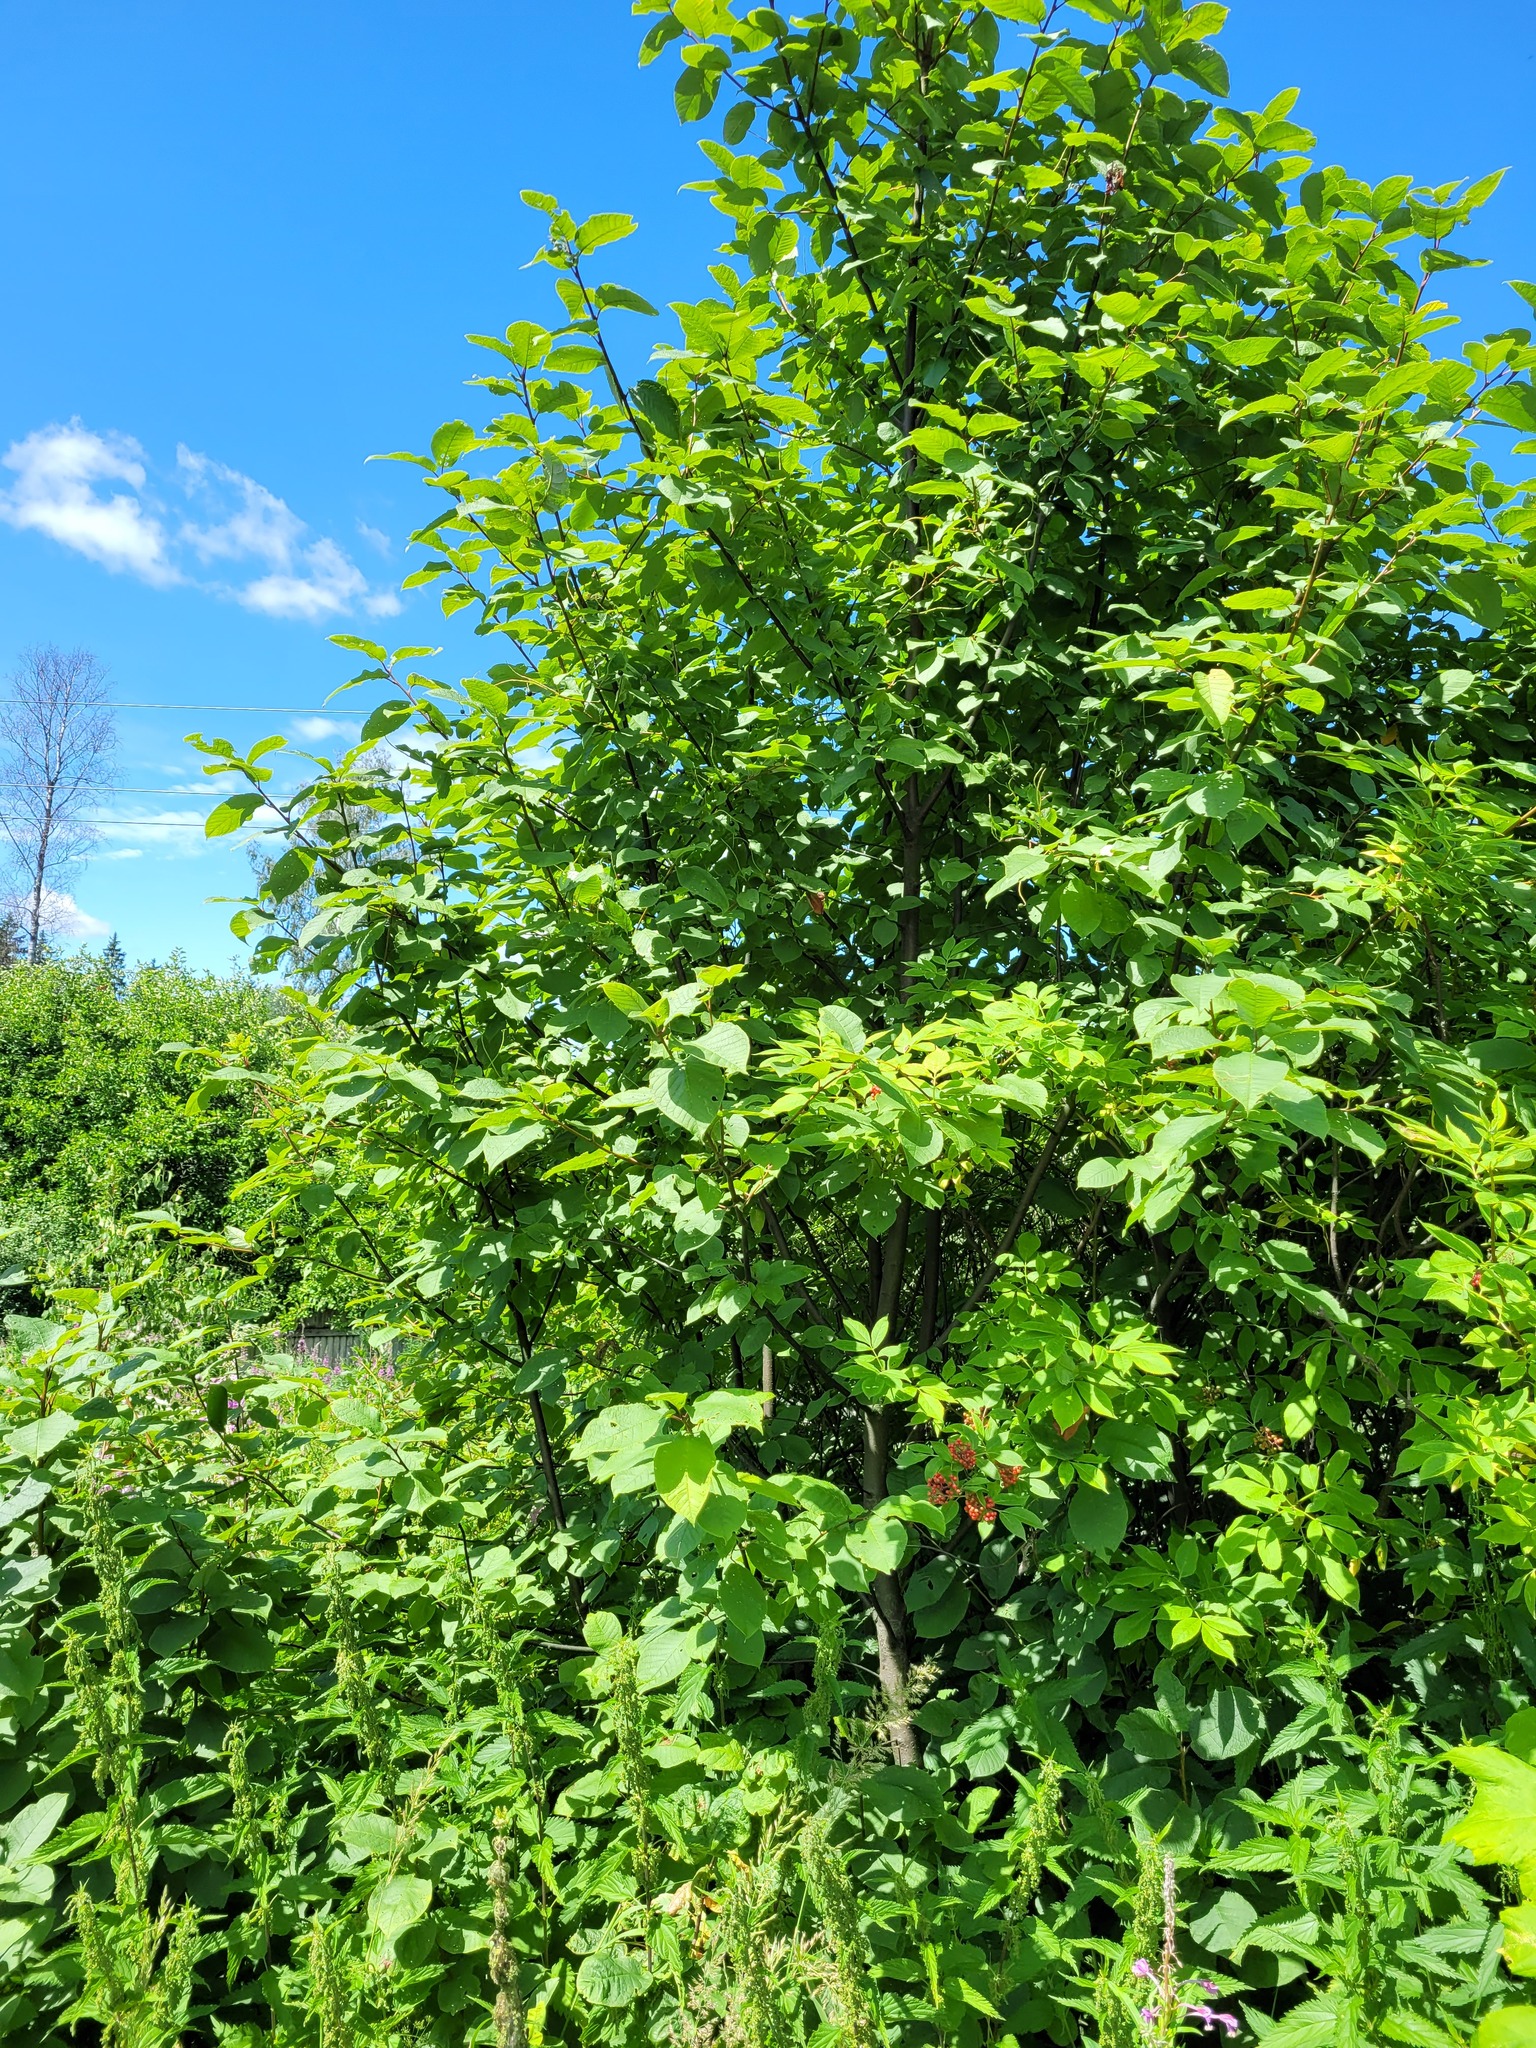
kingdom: Plantae
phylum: Tracheophyta
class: Magnoliopsida
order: Rosales
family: Rosaceae
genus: Prunus
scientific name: Prunus padus
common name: Bird cherry
